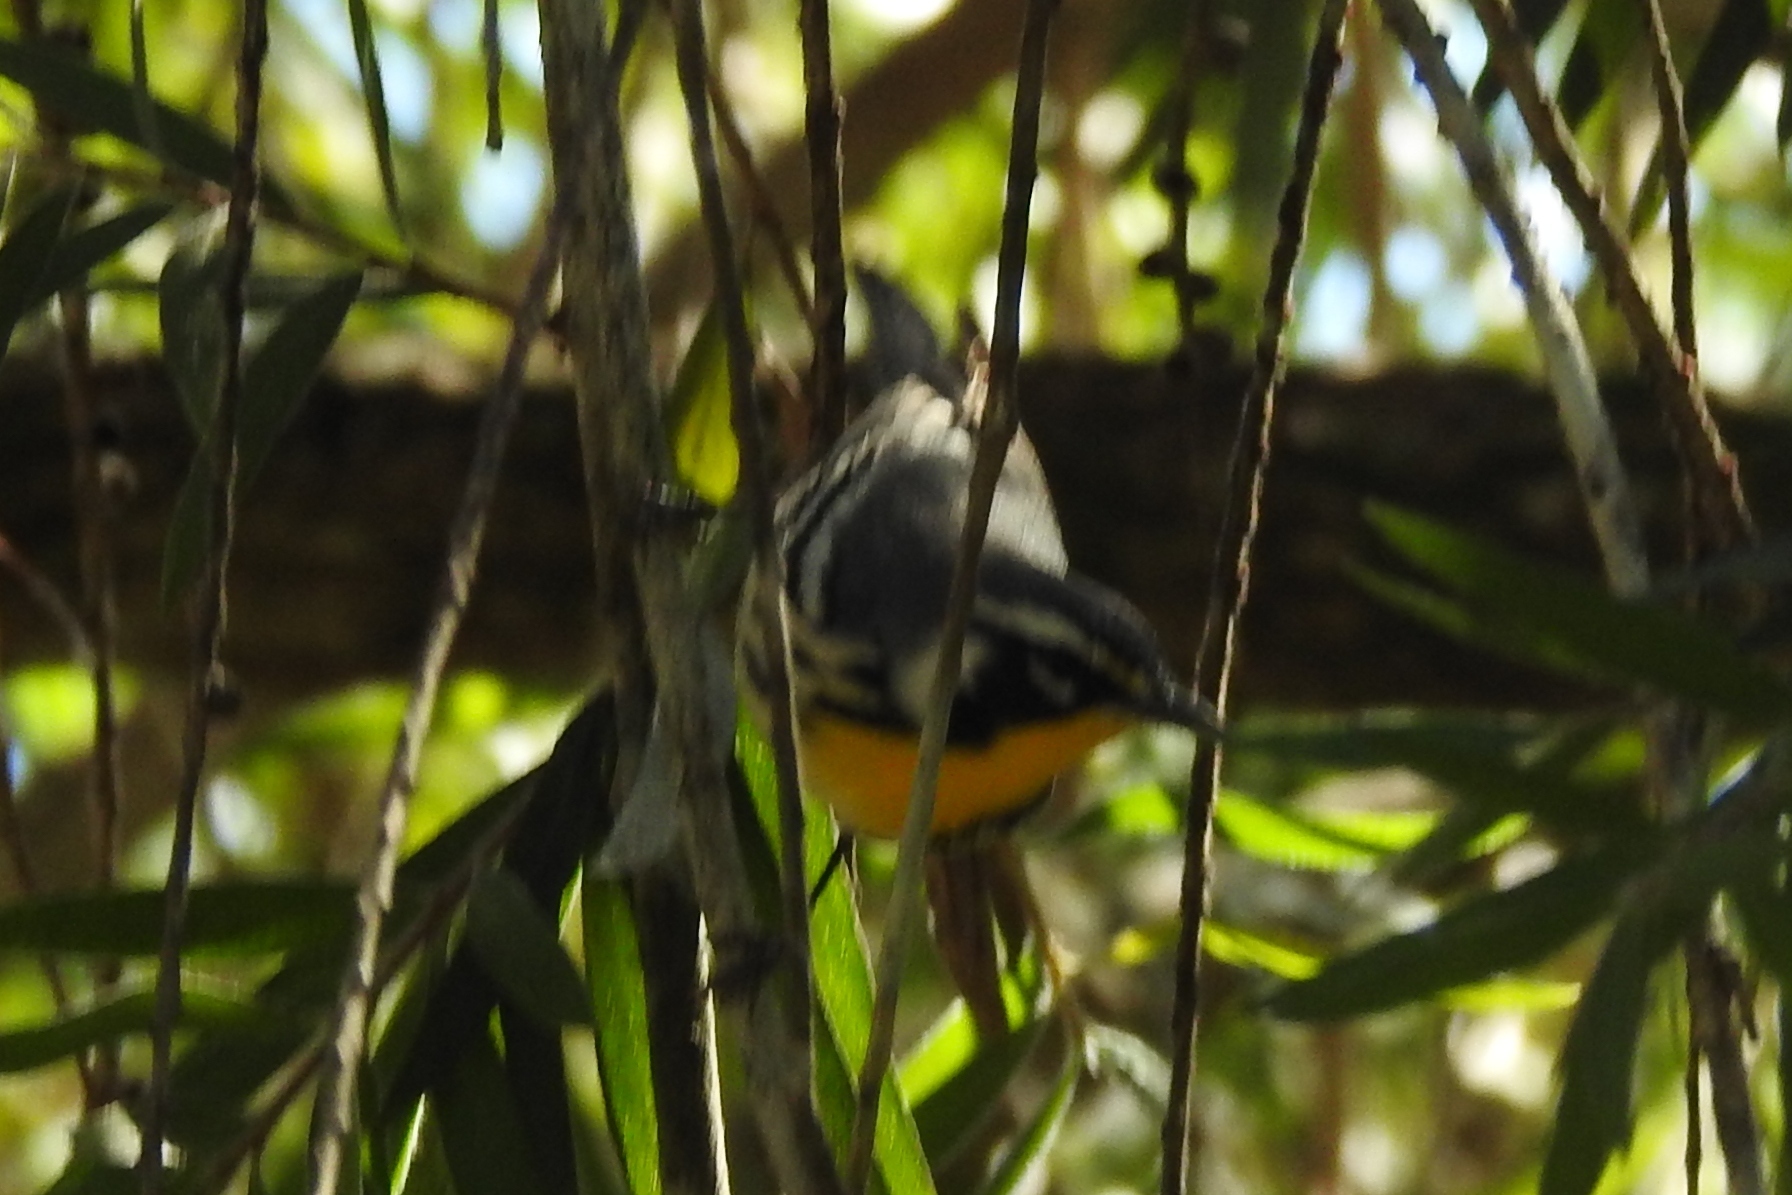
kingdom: Animalia
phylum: Chordata
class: Aves
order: Passeriformes
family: Parulidae
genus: Setophaga
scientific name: Setophaga dominica
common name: Yellow-throated warbler
